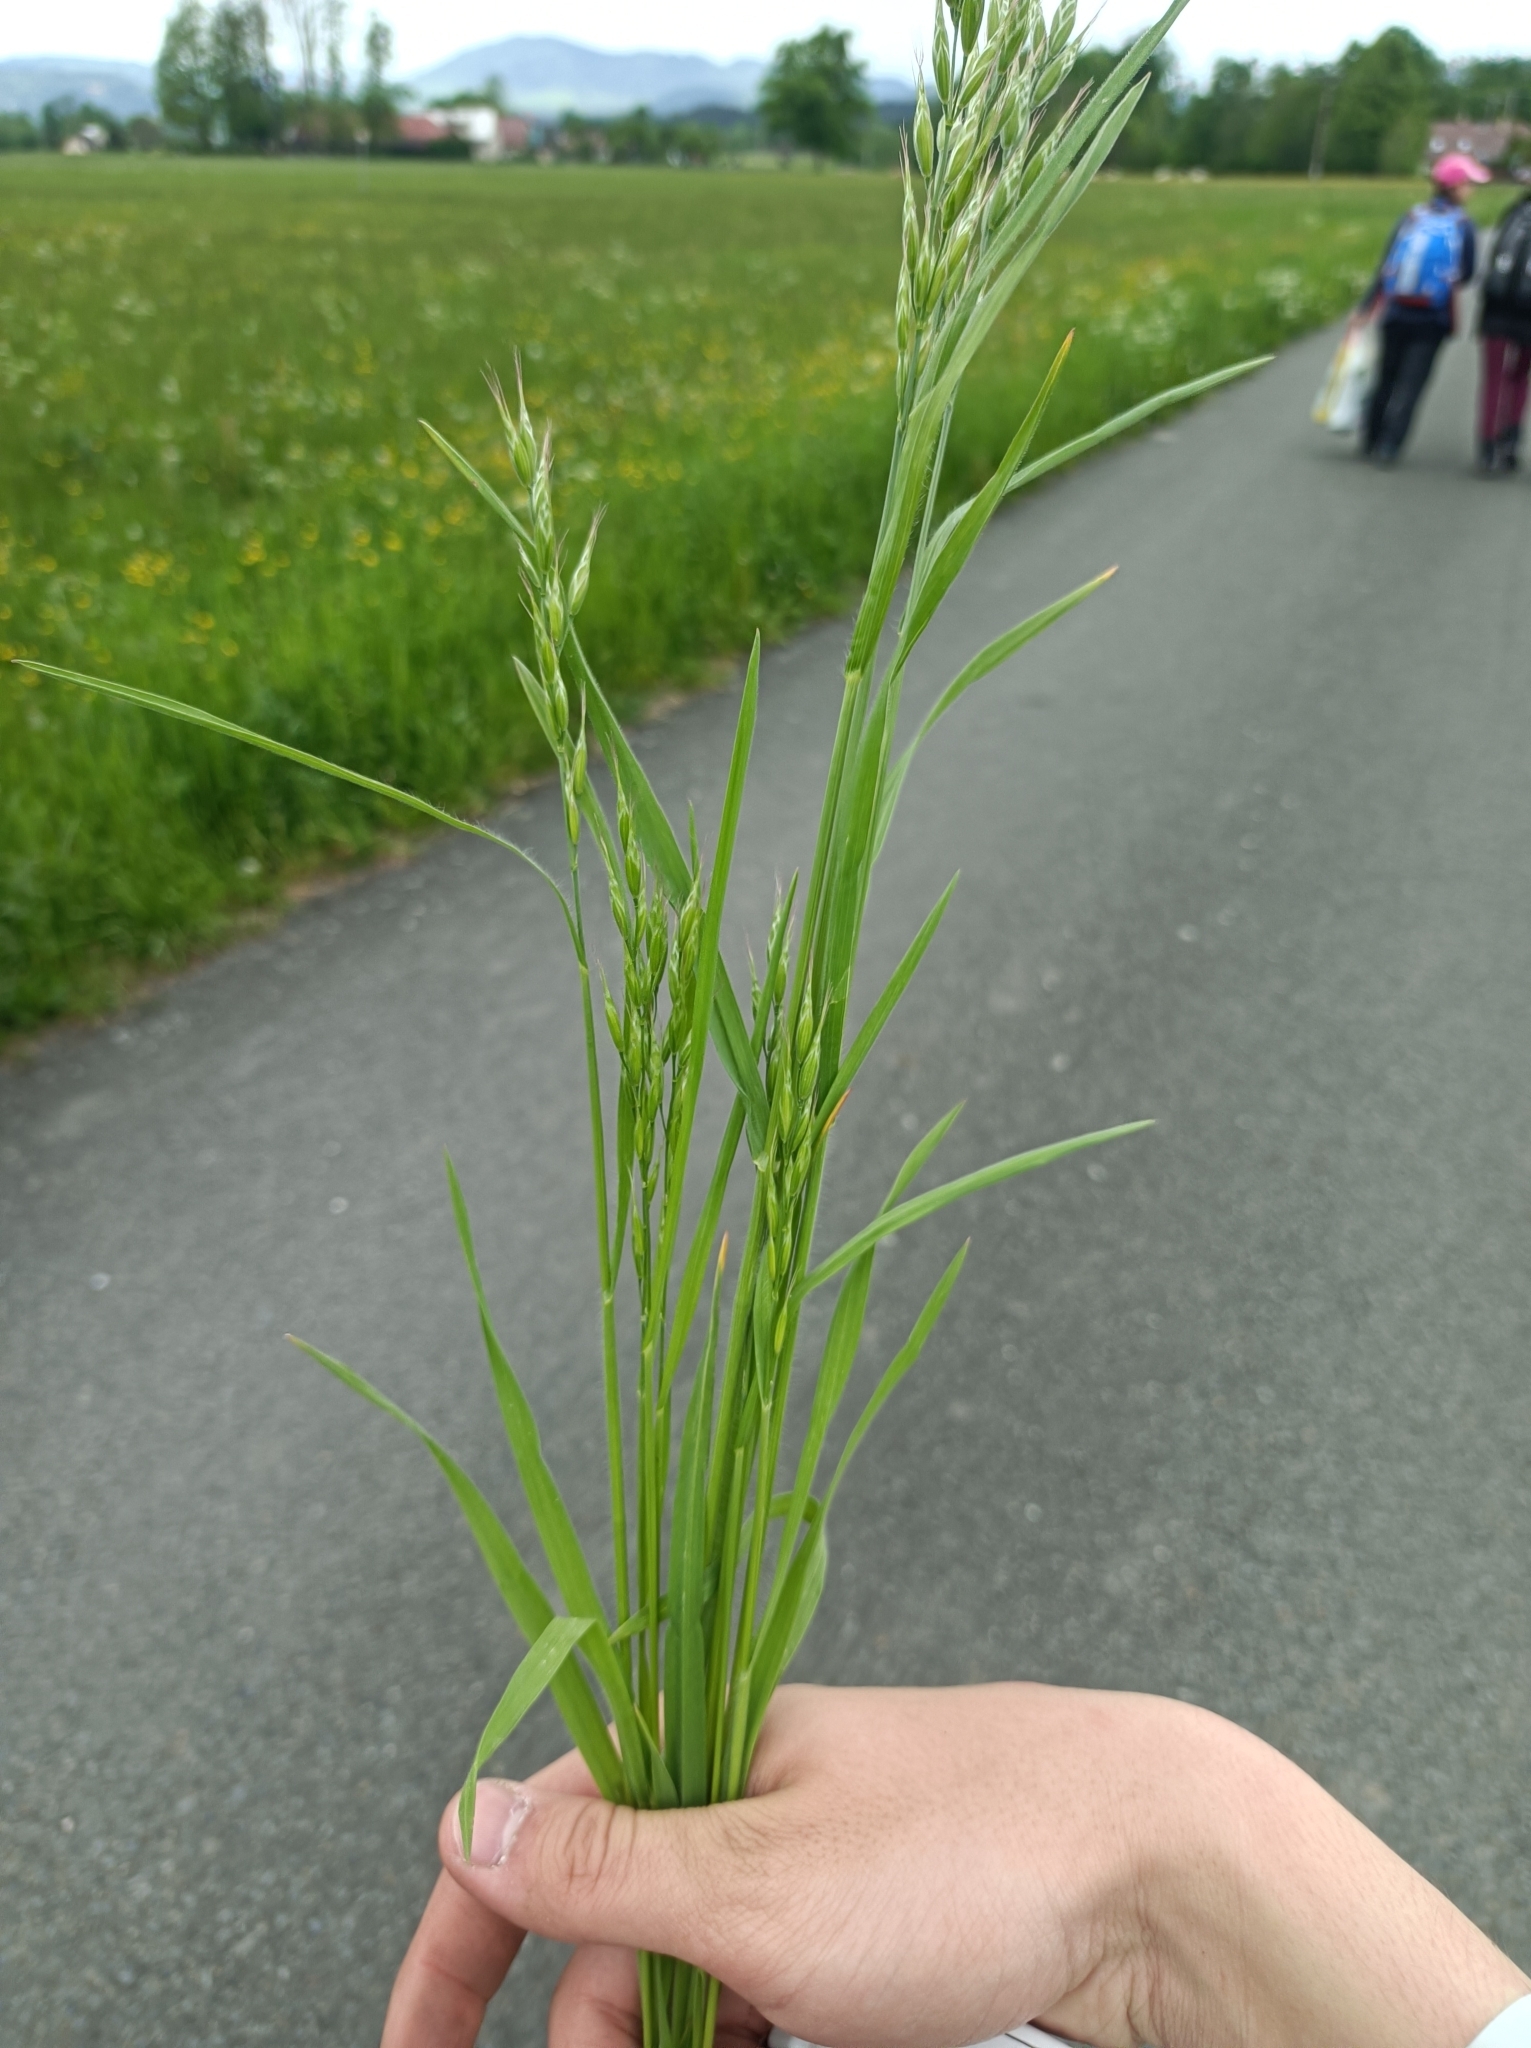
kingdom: Plantae
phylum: Tracheophyta
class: Liliopsida
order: Poales
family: Poaceae
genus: Bromus
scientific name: Bromus hordeaceus
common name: Soft brome
